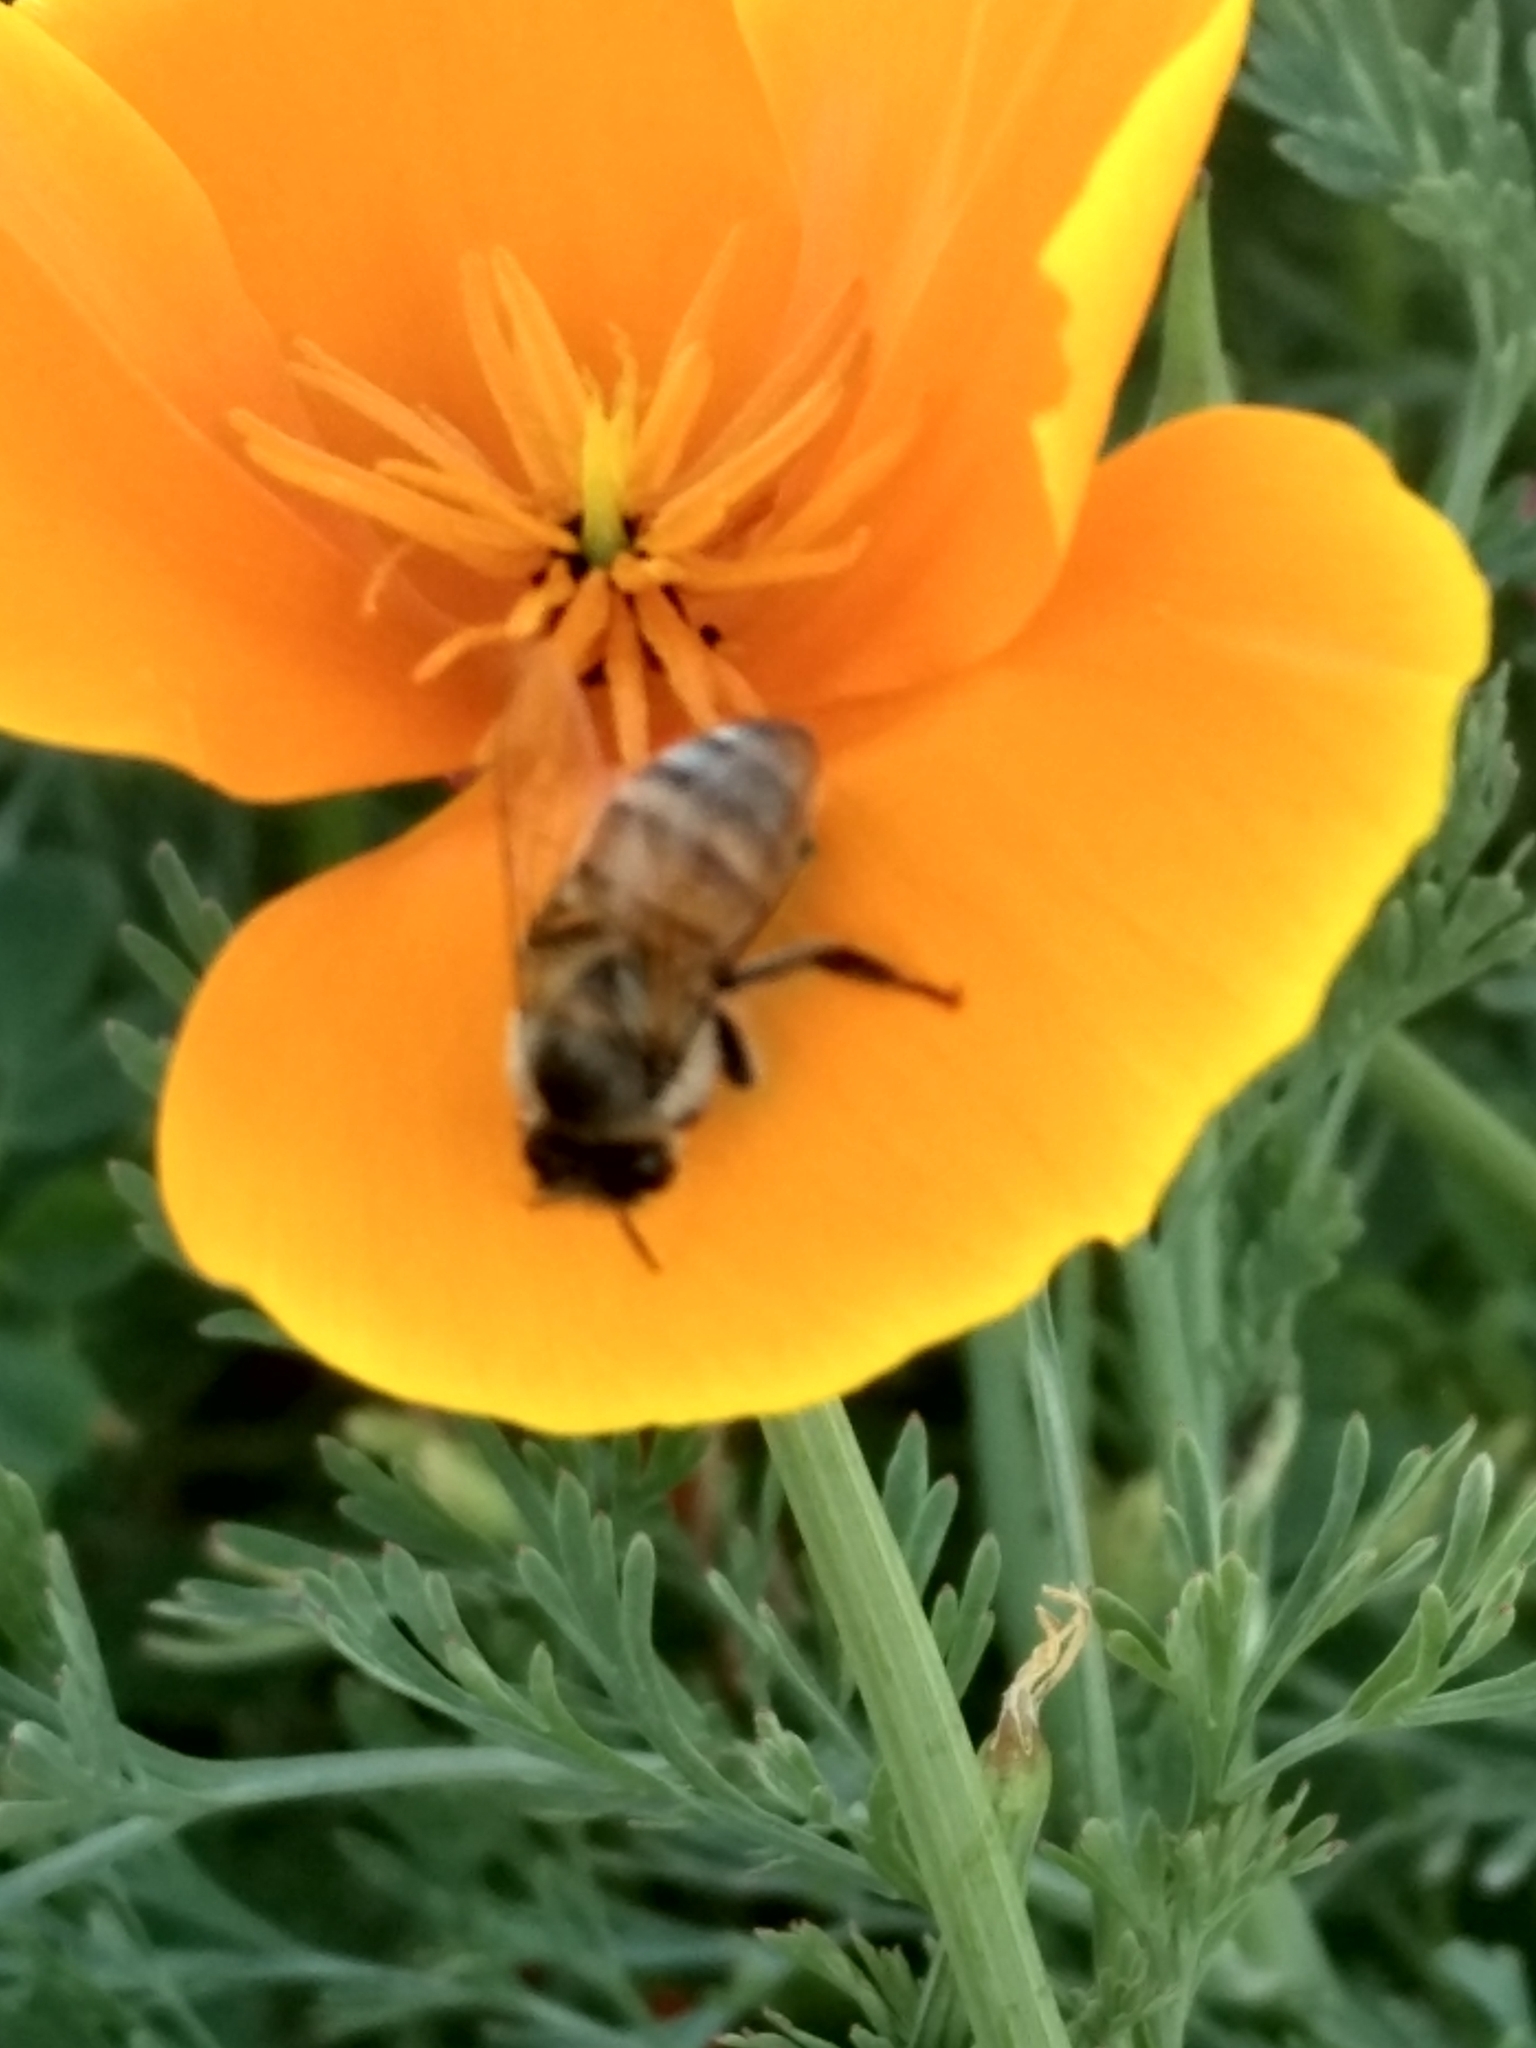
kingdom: Animalia
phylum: Arthropoda
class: Insecta
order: Hymenoptera
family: Apidae
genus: Apis
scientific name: Apis mellifera
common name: Honey bee
